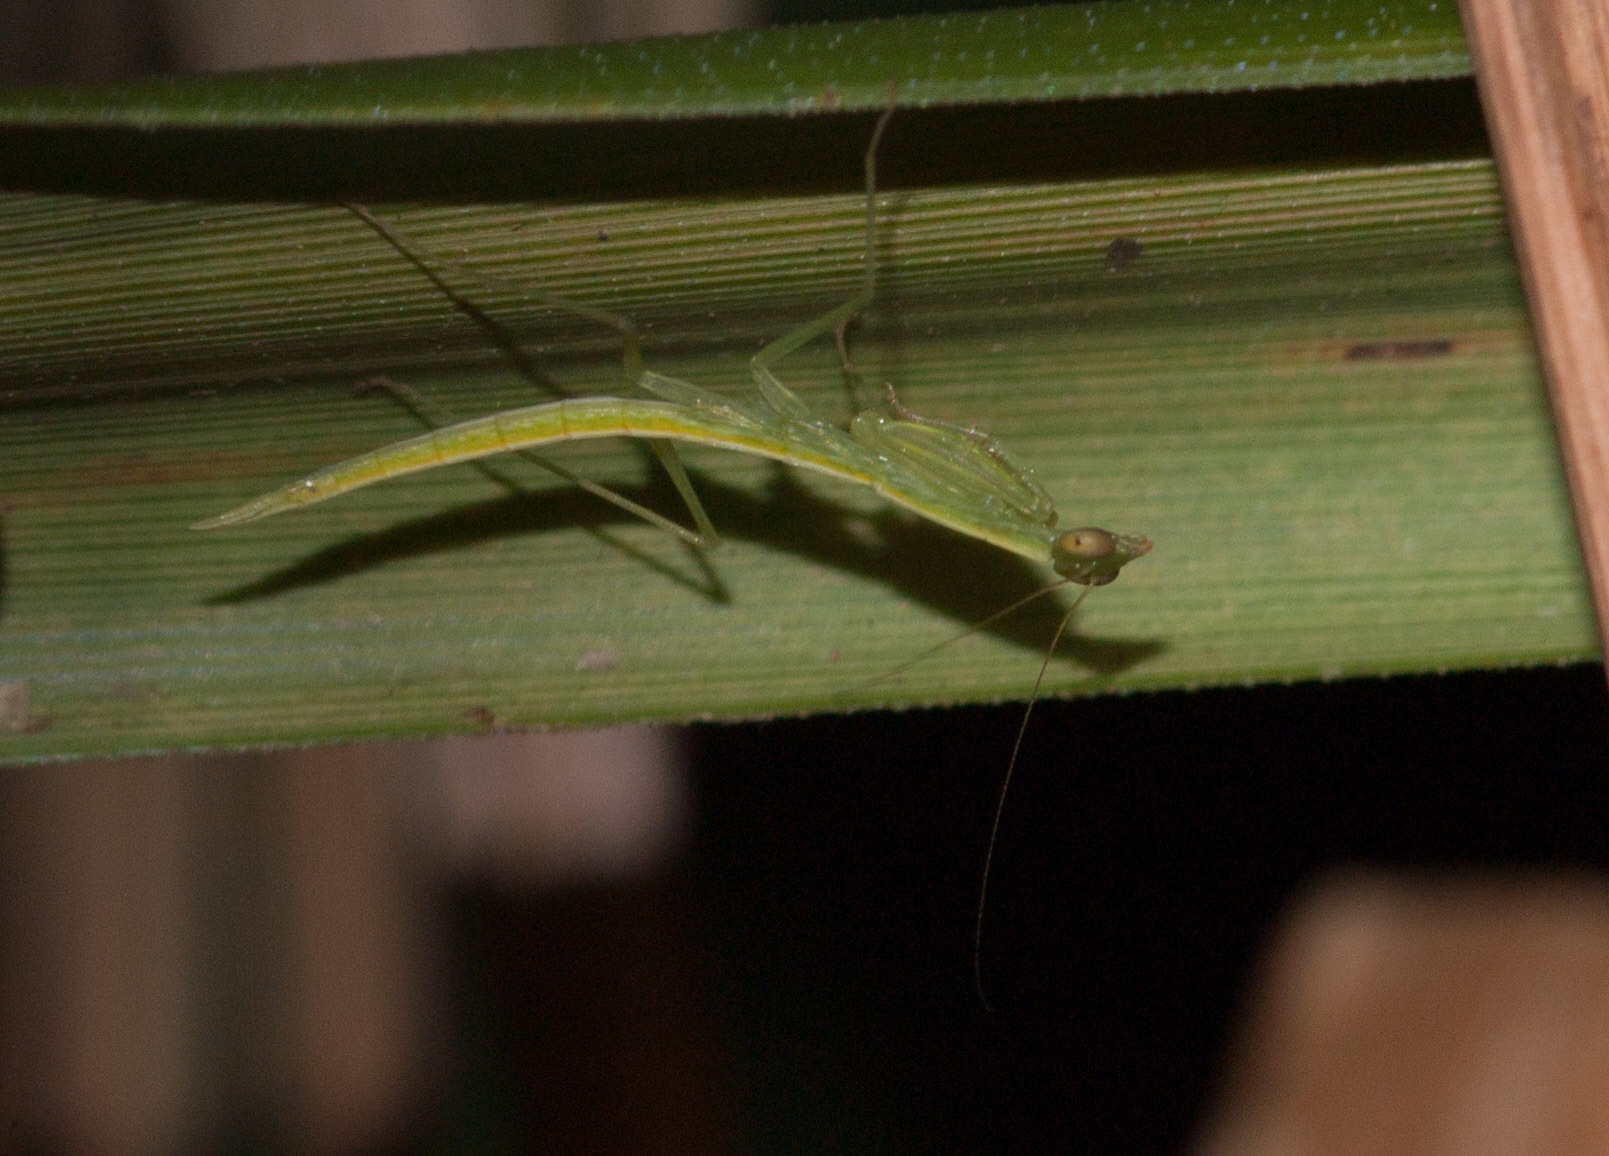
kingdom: Animalia
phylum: Arthropoda
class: Insecta
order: Mantodea
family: Nanomantidae
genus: Kongobatha
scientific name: Kongobatha diademata
